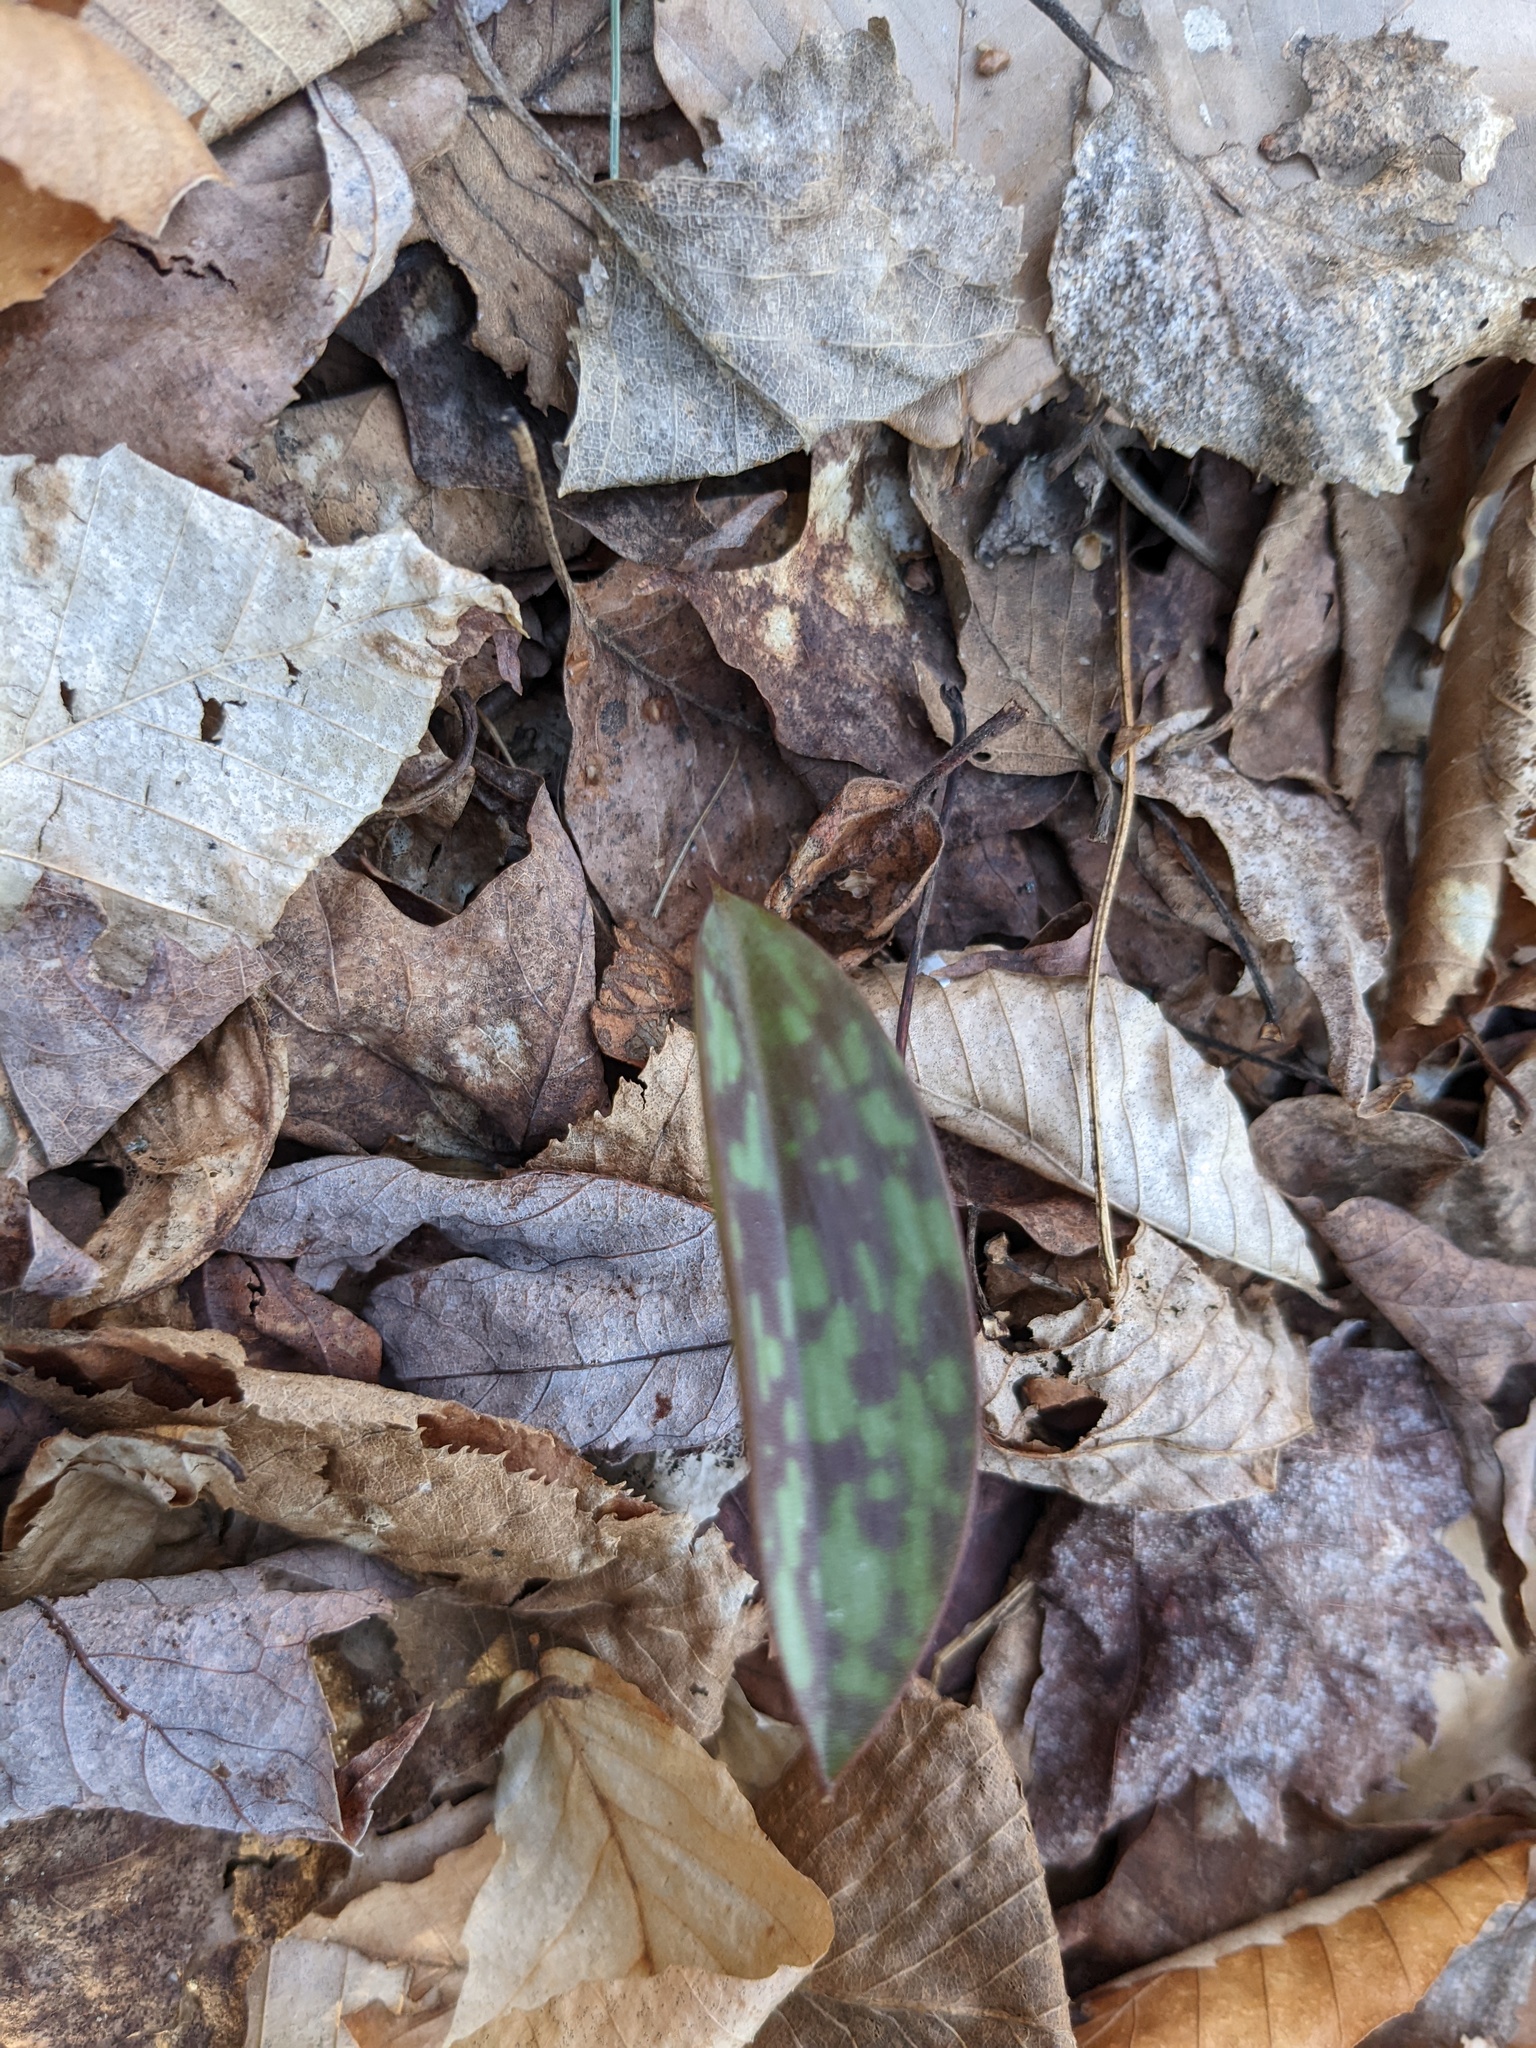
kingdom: Plantae
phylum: Tracheophyta
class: Liliopsida
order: Liliales
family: Liliaceae
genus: Erythronium
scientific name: Erythronium americanum
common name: Yellow adder's-tongue
